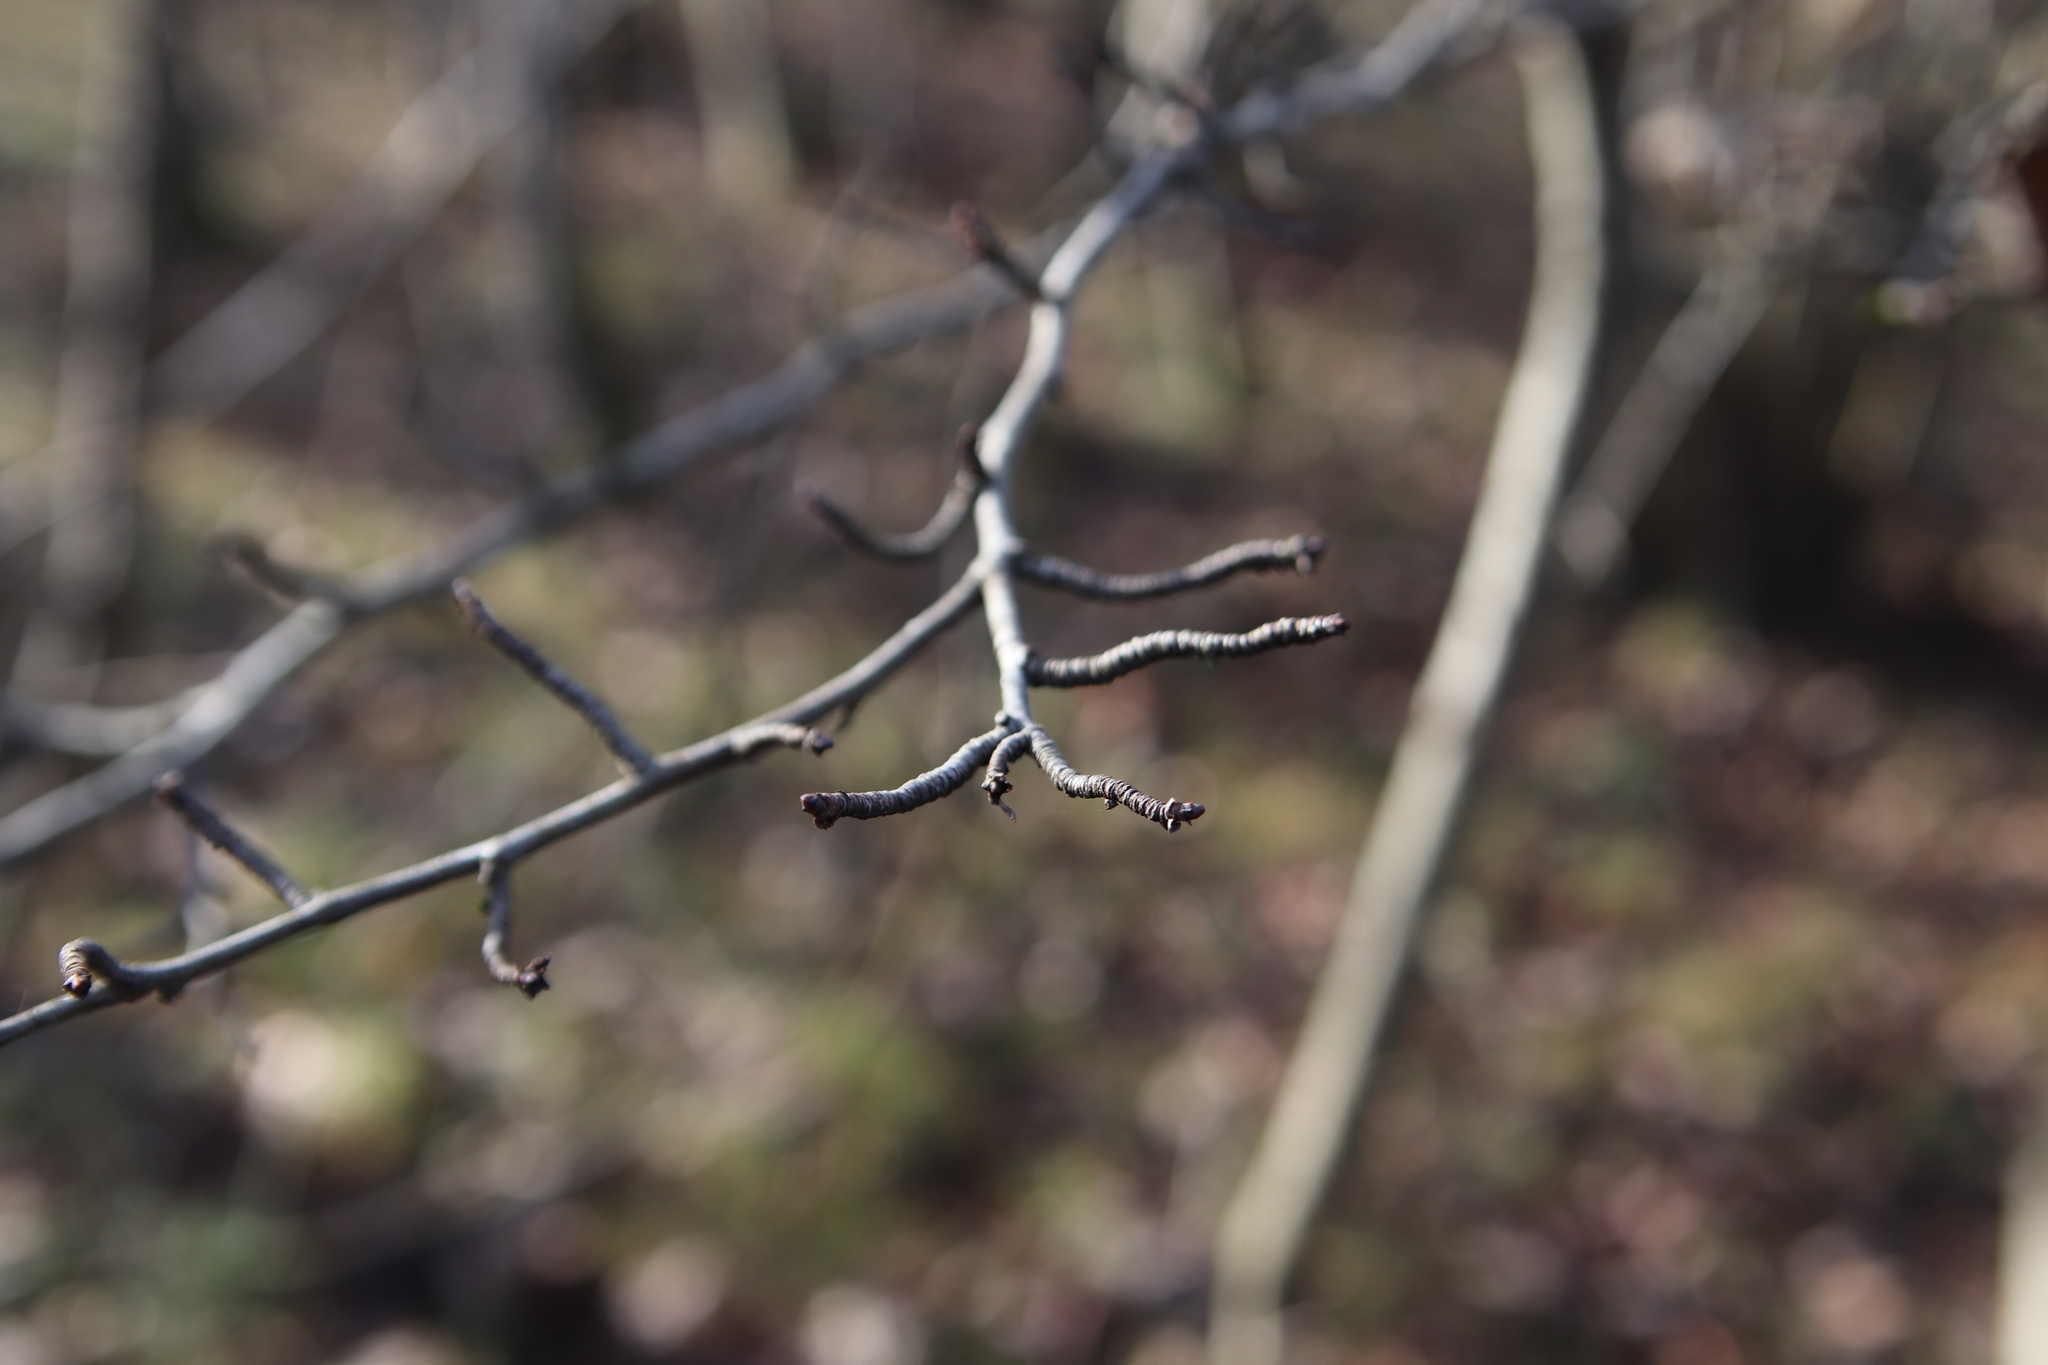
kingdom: Plantae
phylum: Tracheophyta
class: Magnoliopsida
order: Rosales
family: Rosaceae
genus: Crataegus
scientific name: Crataegus monogyna
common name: Hawthorn
